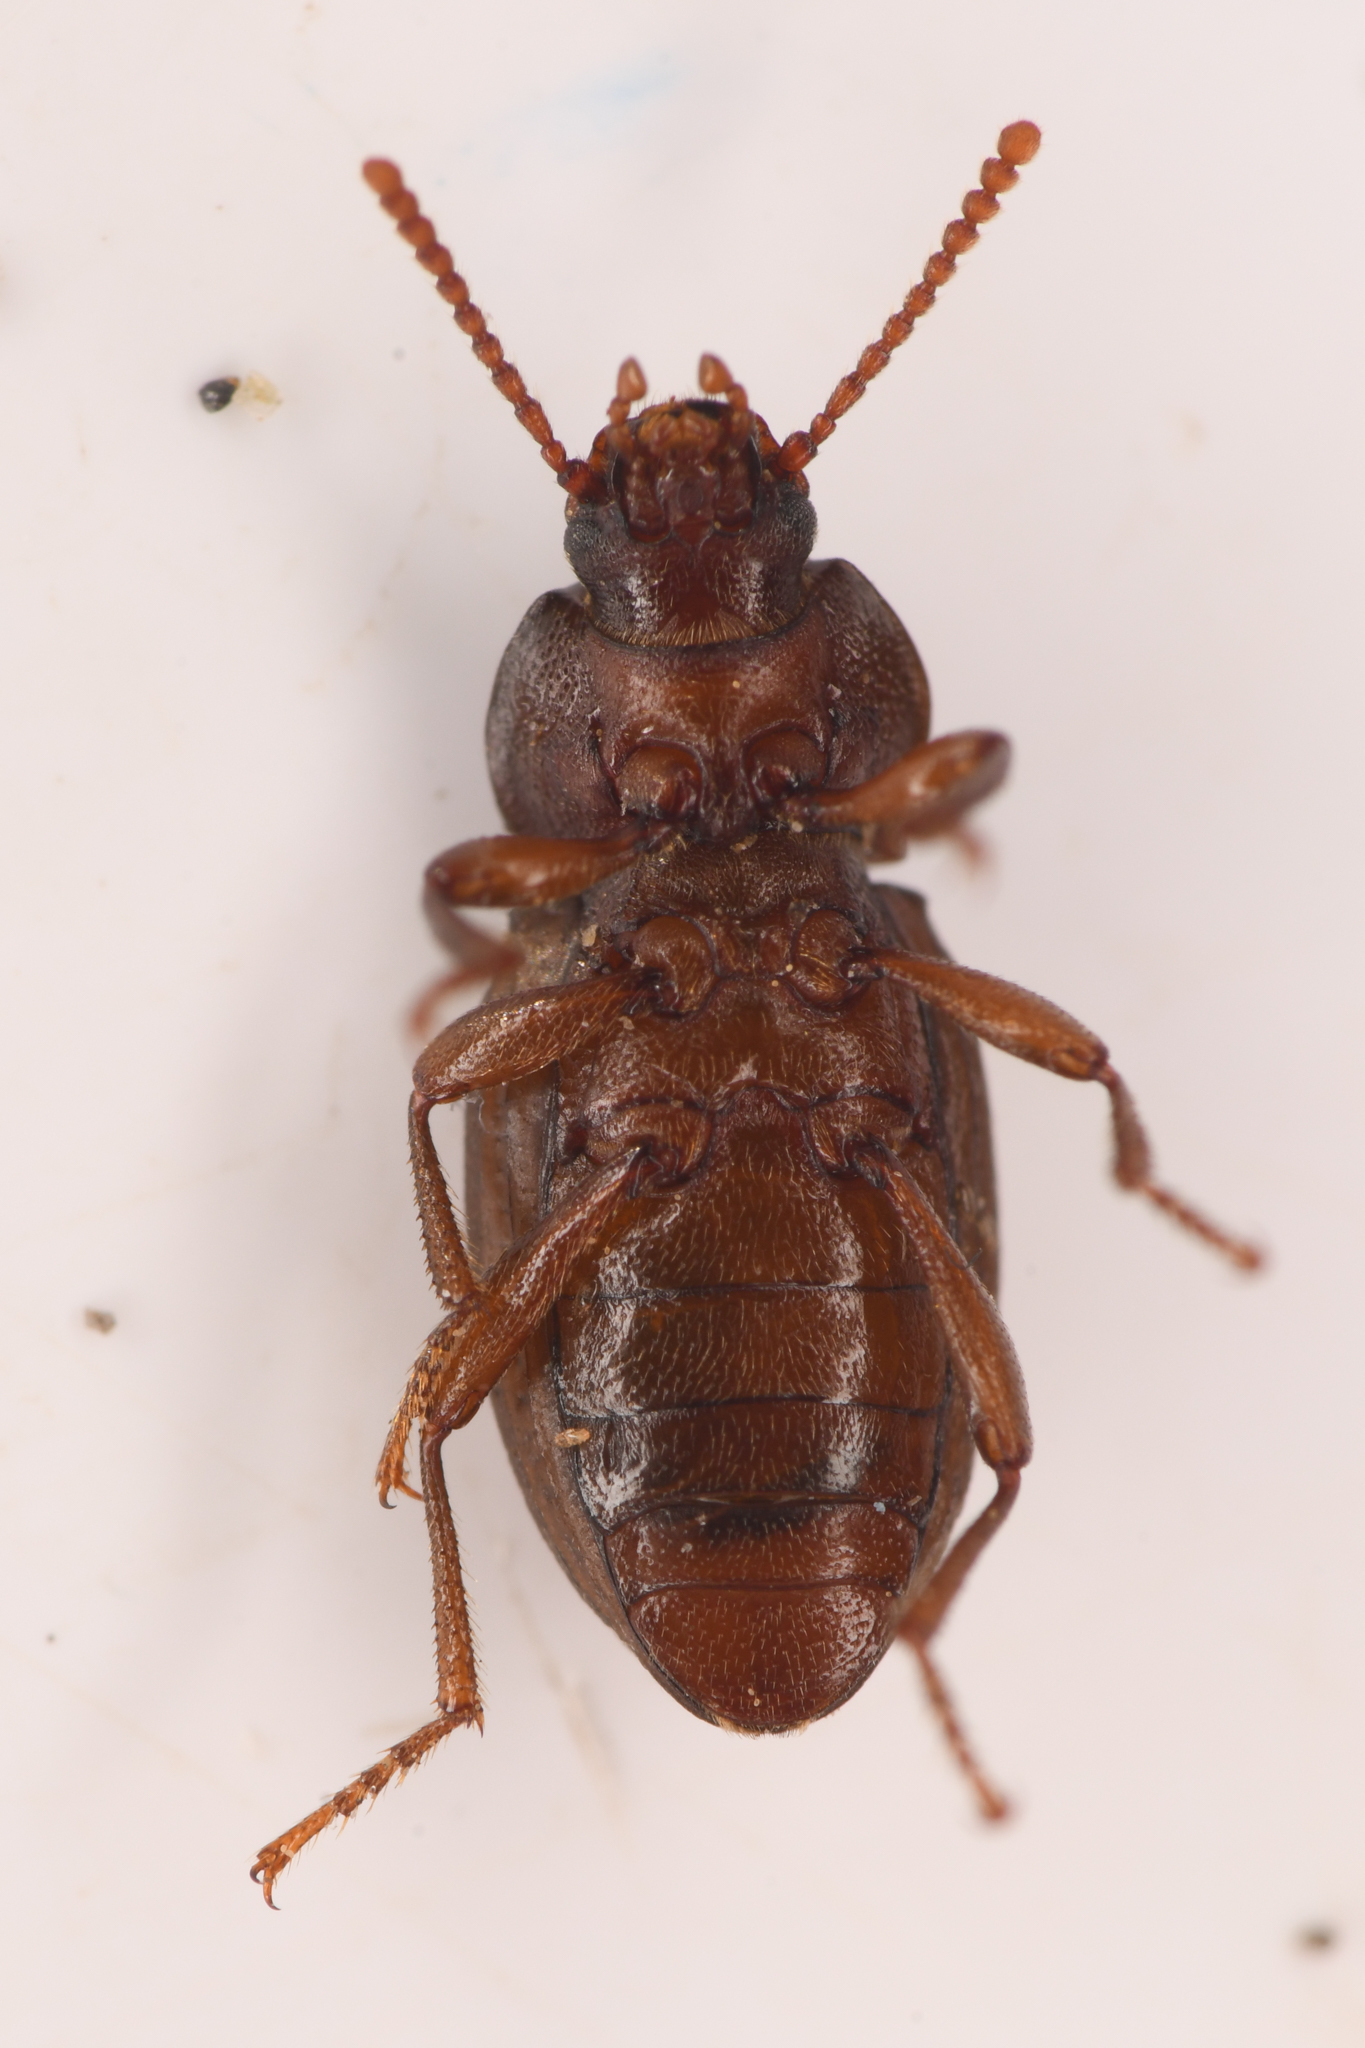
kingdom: Animalia
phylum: Arthropoda
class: Insecta
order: Coleoptera
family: Tenebrionidae
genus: Epantius
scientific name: Epantius obscurus
